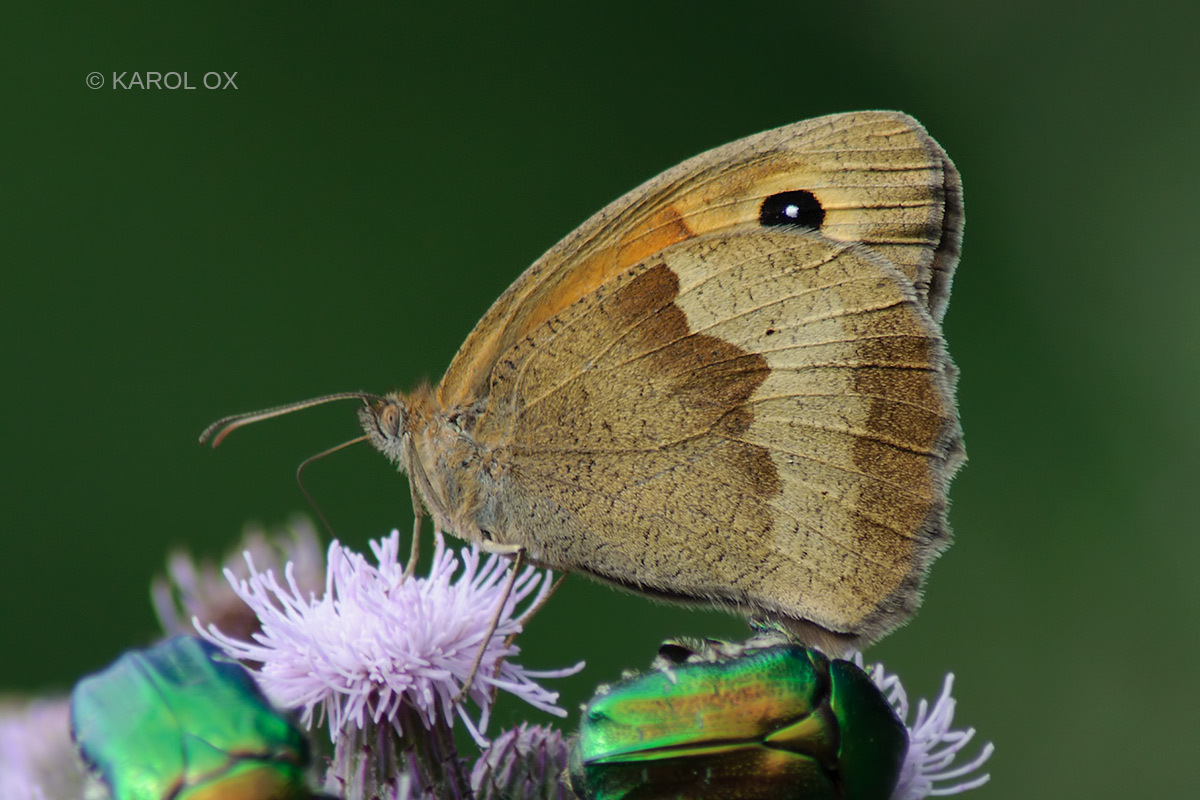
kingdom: Animalia
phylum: Arthropoda
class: Insecta
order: Lepidoptera
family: Nymphalidae
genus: Maniola
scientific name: Maniola jurtina
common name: Meadow brown
